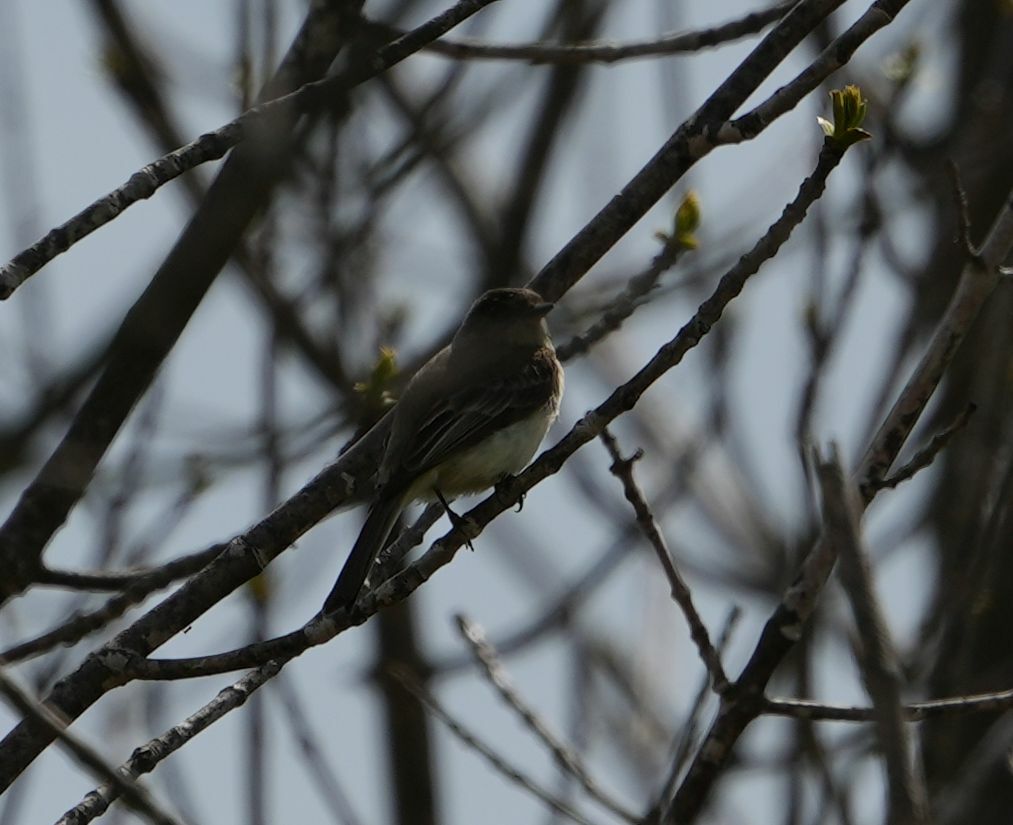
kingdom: Animalia
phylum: Chordata
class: Aves
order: Passeriformes
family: Tyrannidae
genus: Sayornis
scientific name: Sayornis phoebe
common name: Eastern phoebe
